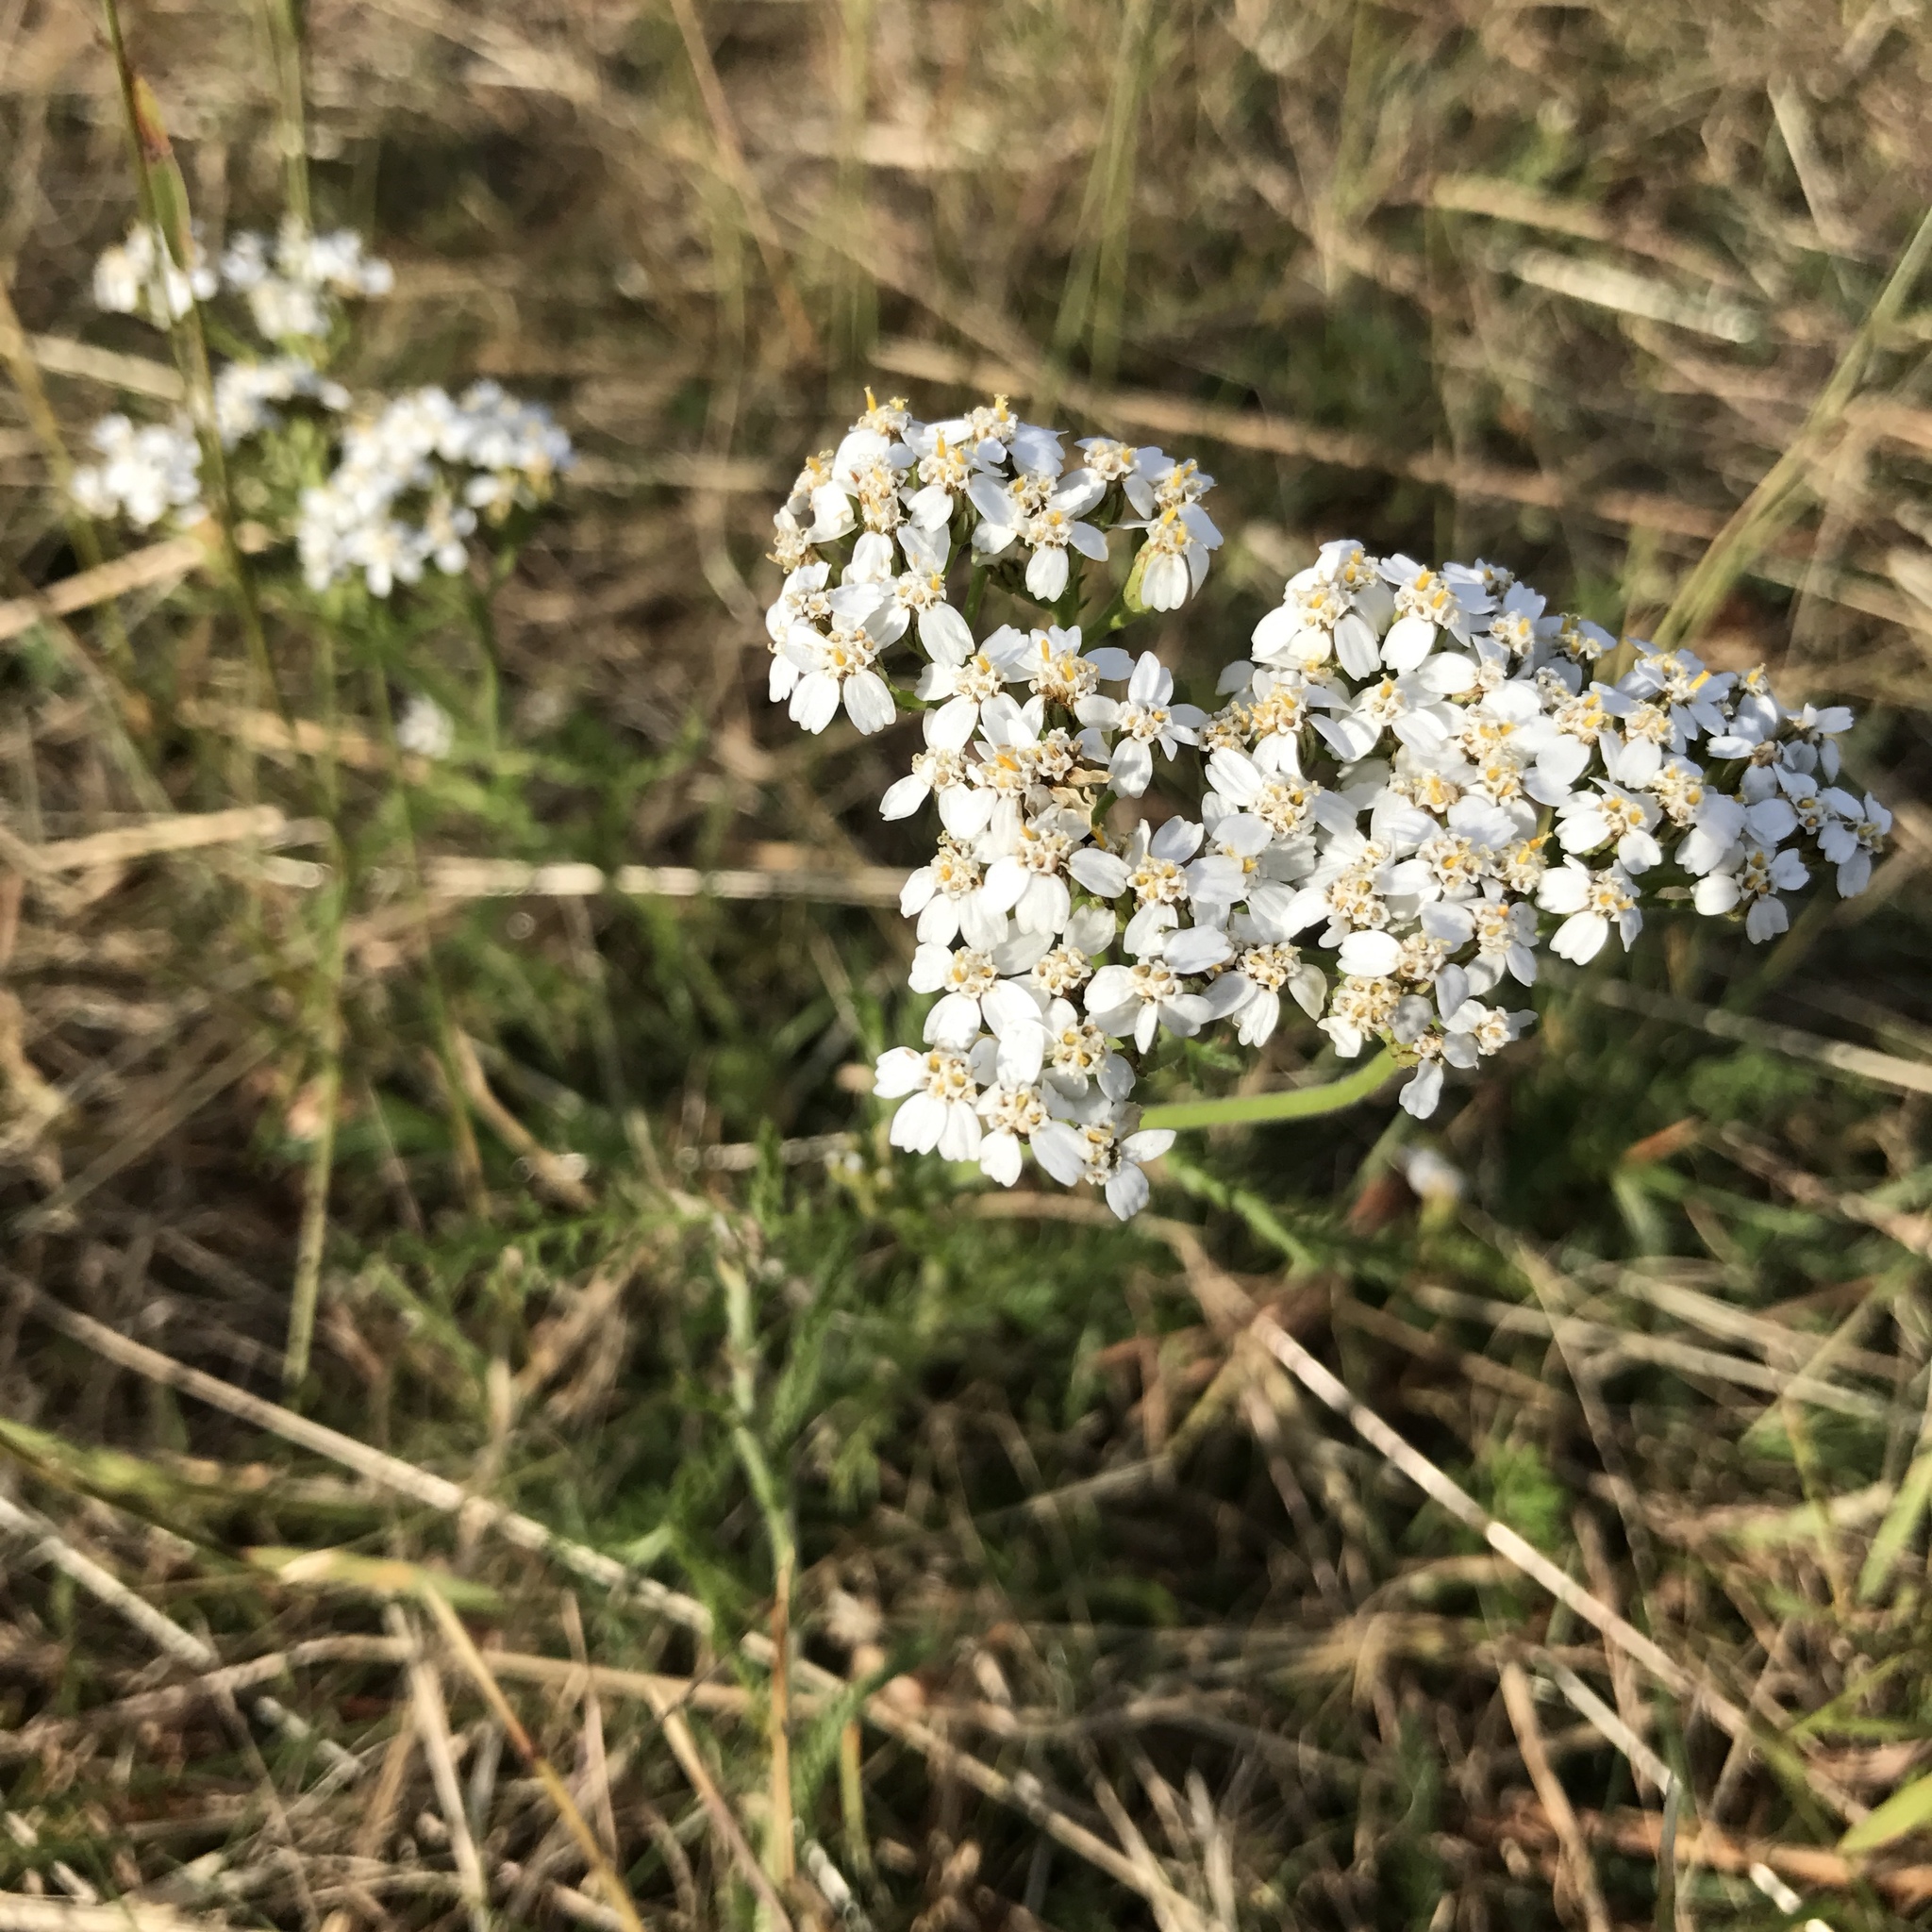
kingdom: Plantae
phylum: Tracheophyta
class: Magnoliopsida
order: Asterales
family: Asteraceae
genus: Achillea
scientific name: Achillea millefolium
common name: Yarrow
